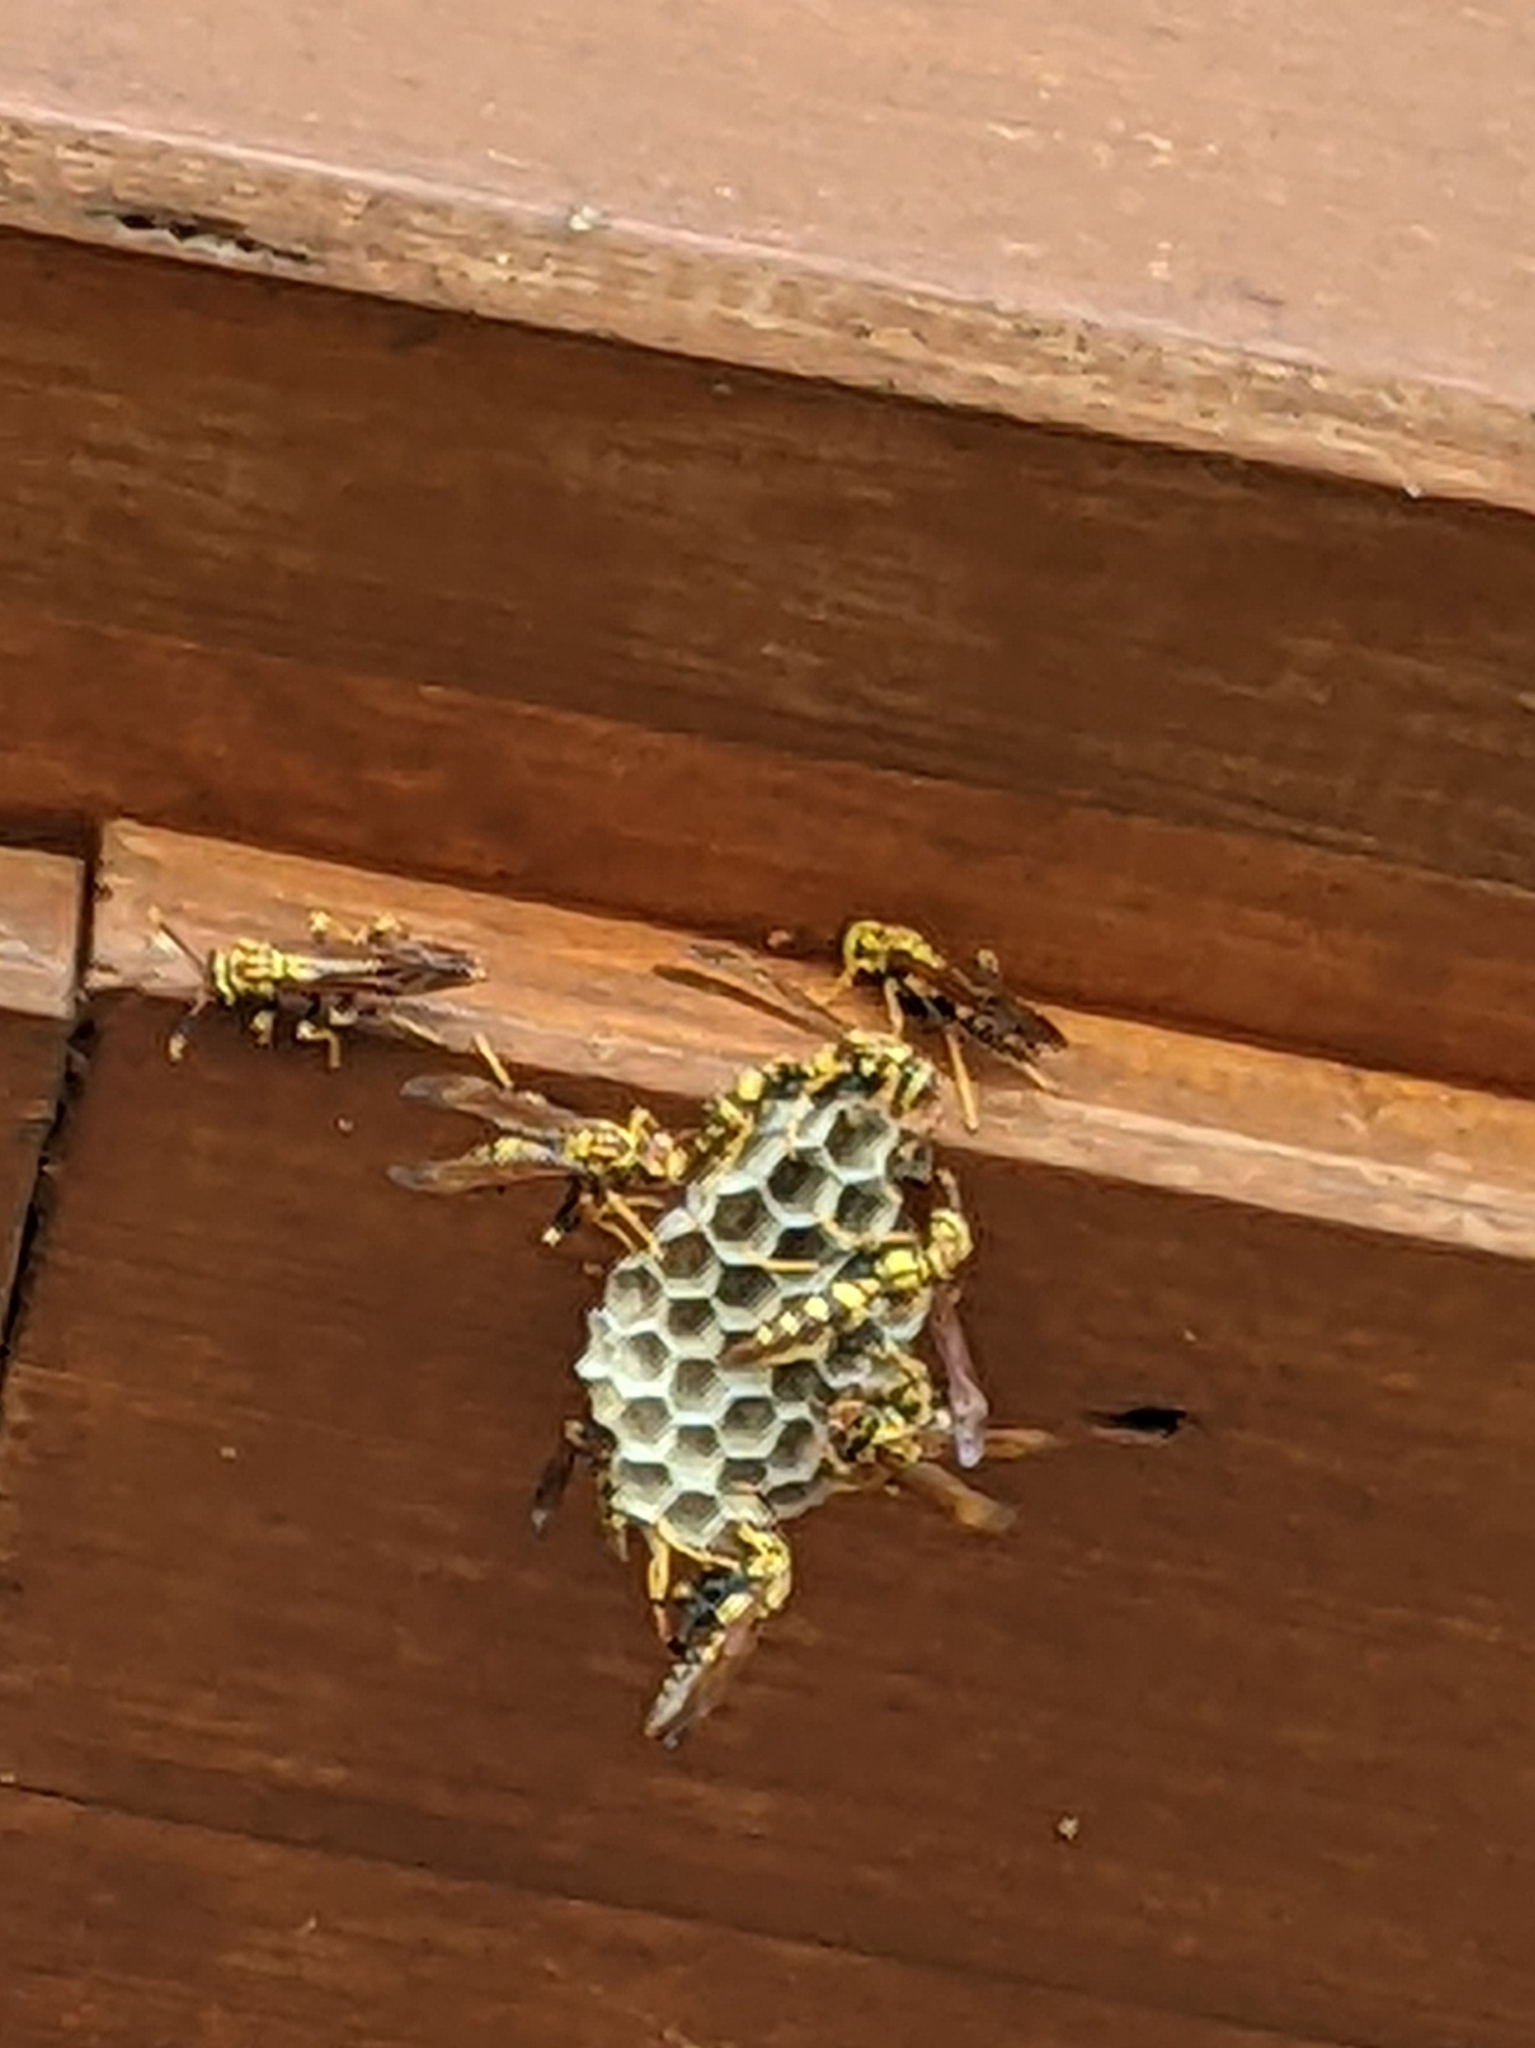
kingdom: Animalia
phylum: Arthropoda
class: Insecta
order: Hymenoptera
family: Eumenidae
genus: Polistes
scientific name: Polistes myersi
